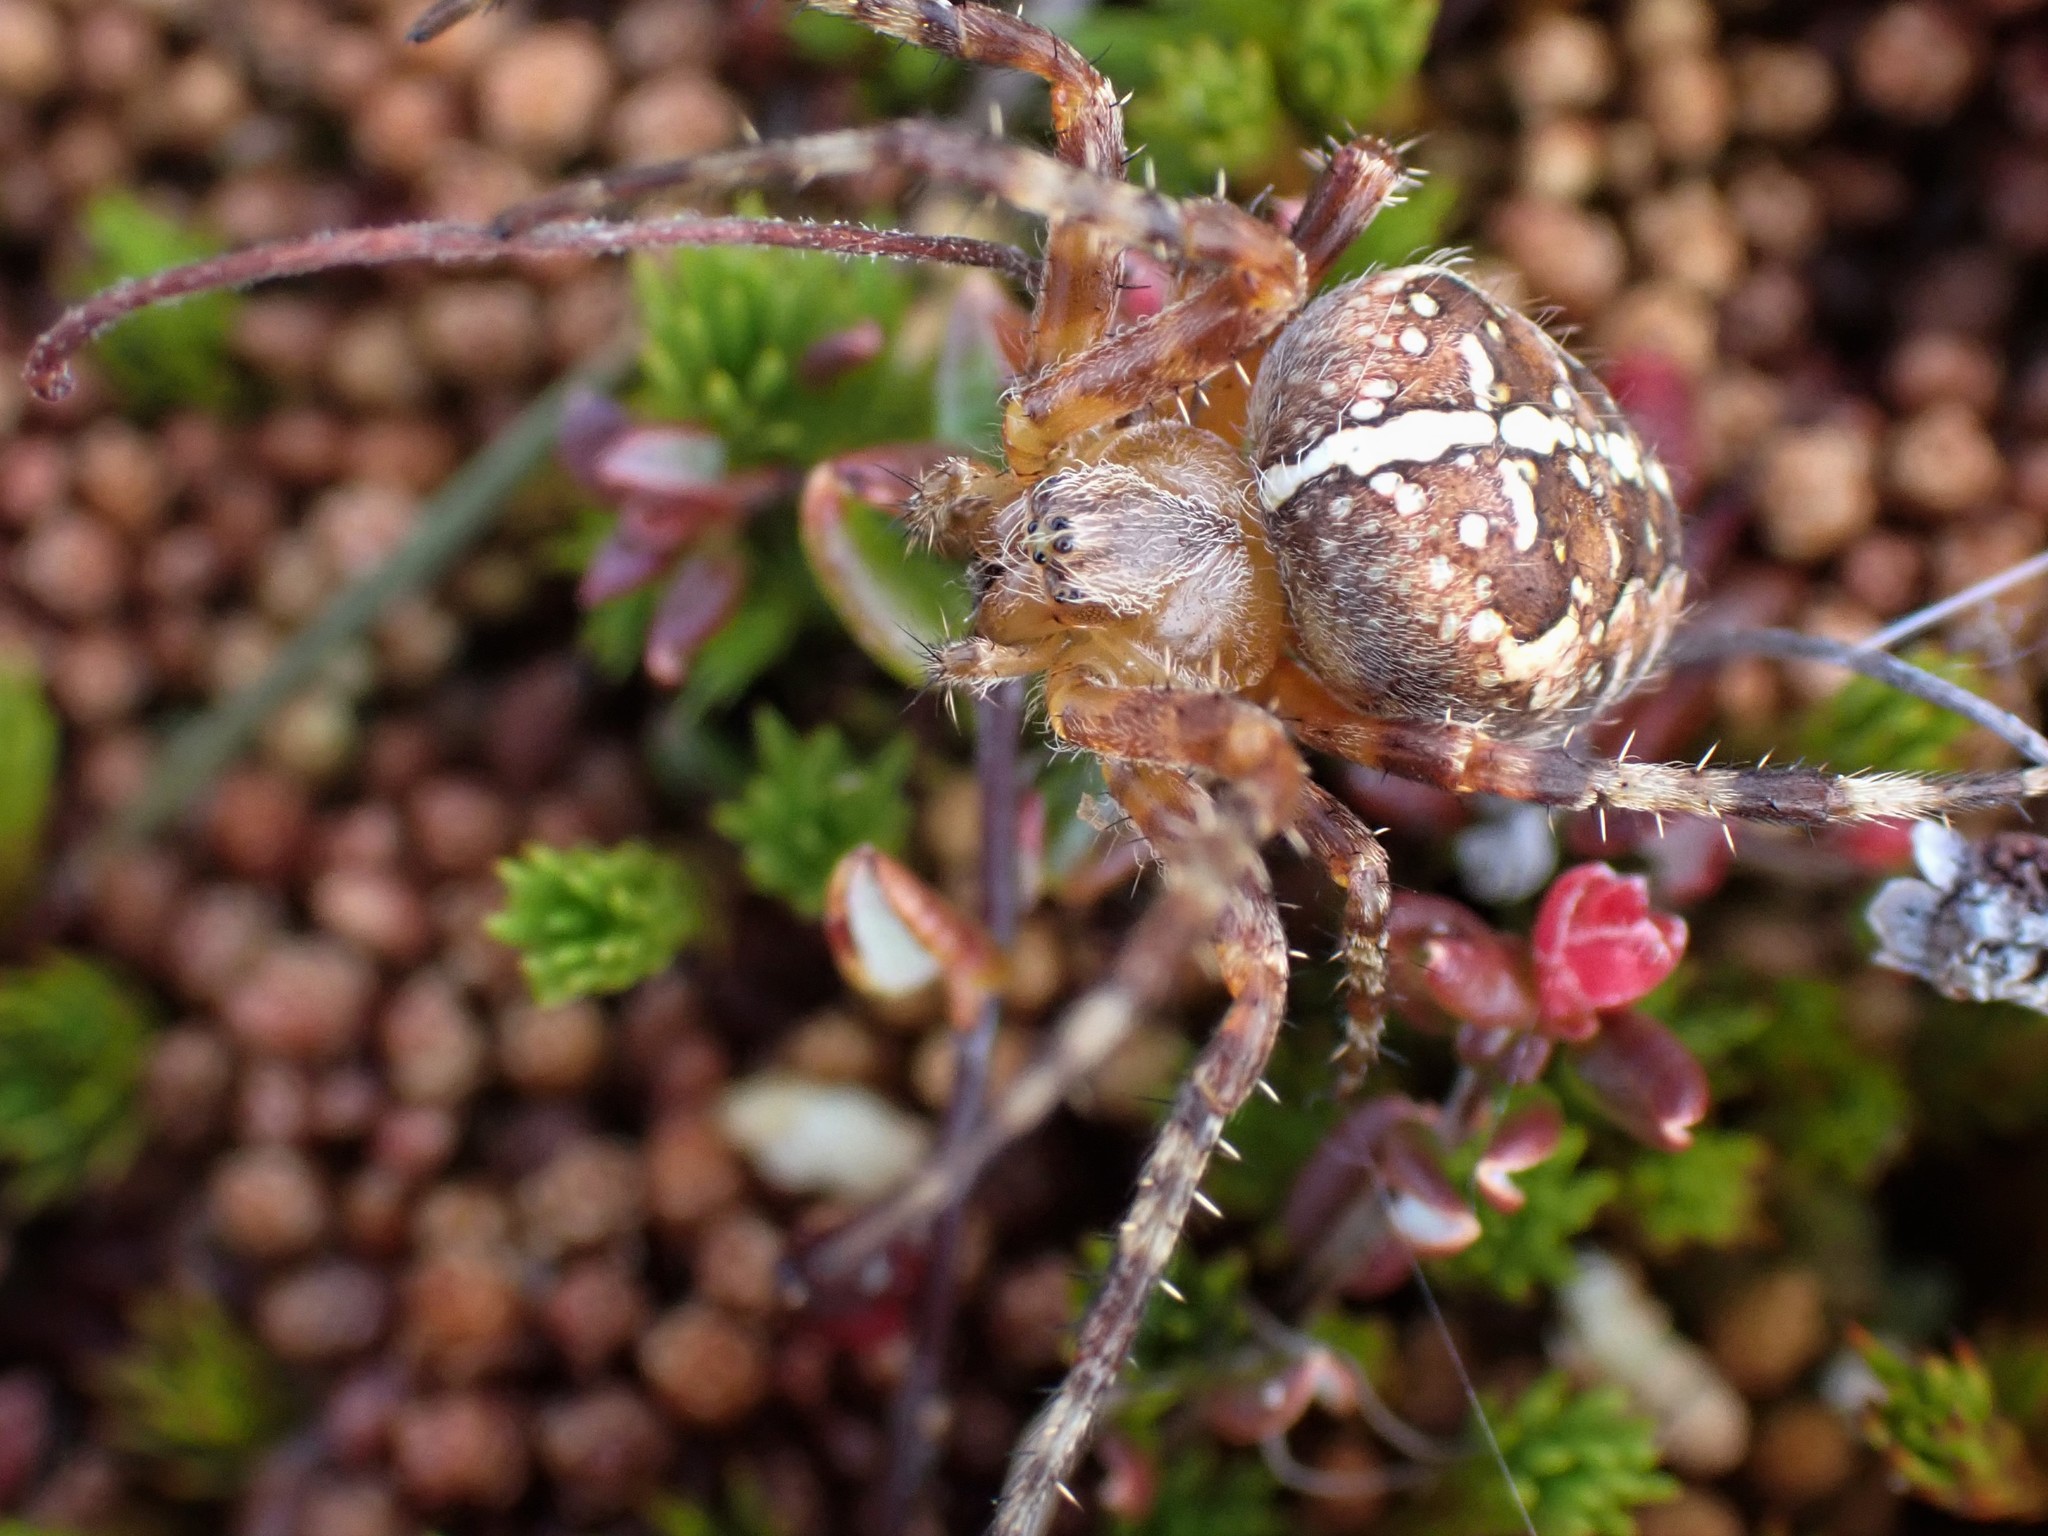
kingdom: Animalia
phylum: Arthropoda
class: Arachnida
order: Araneae
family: Araneidae
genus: Araneus
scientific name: Araneus diadematus
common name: Cross orbweaver
